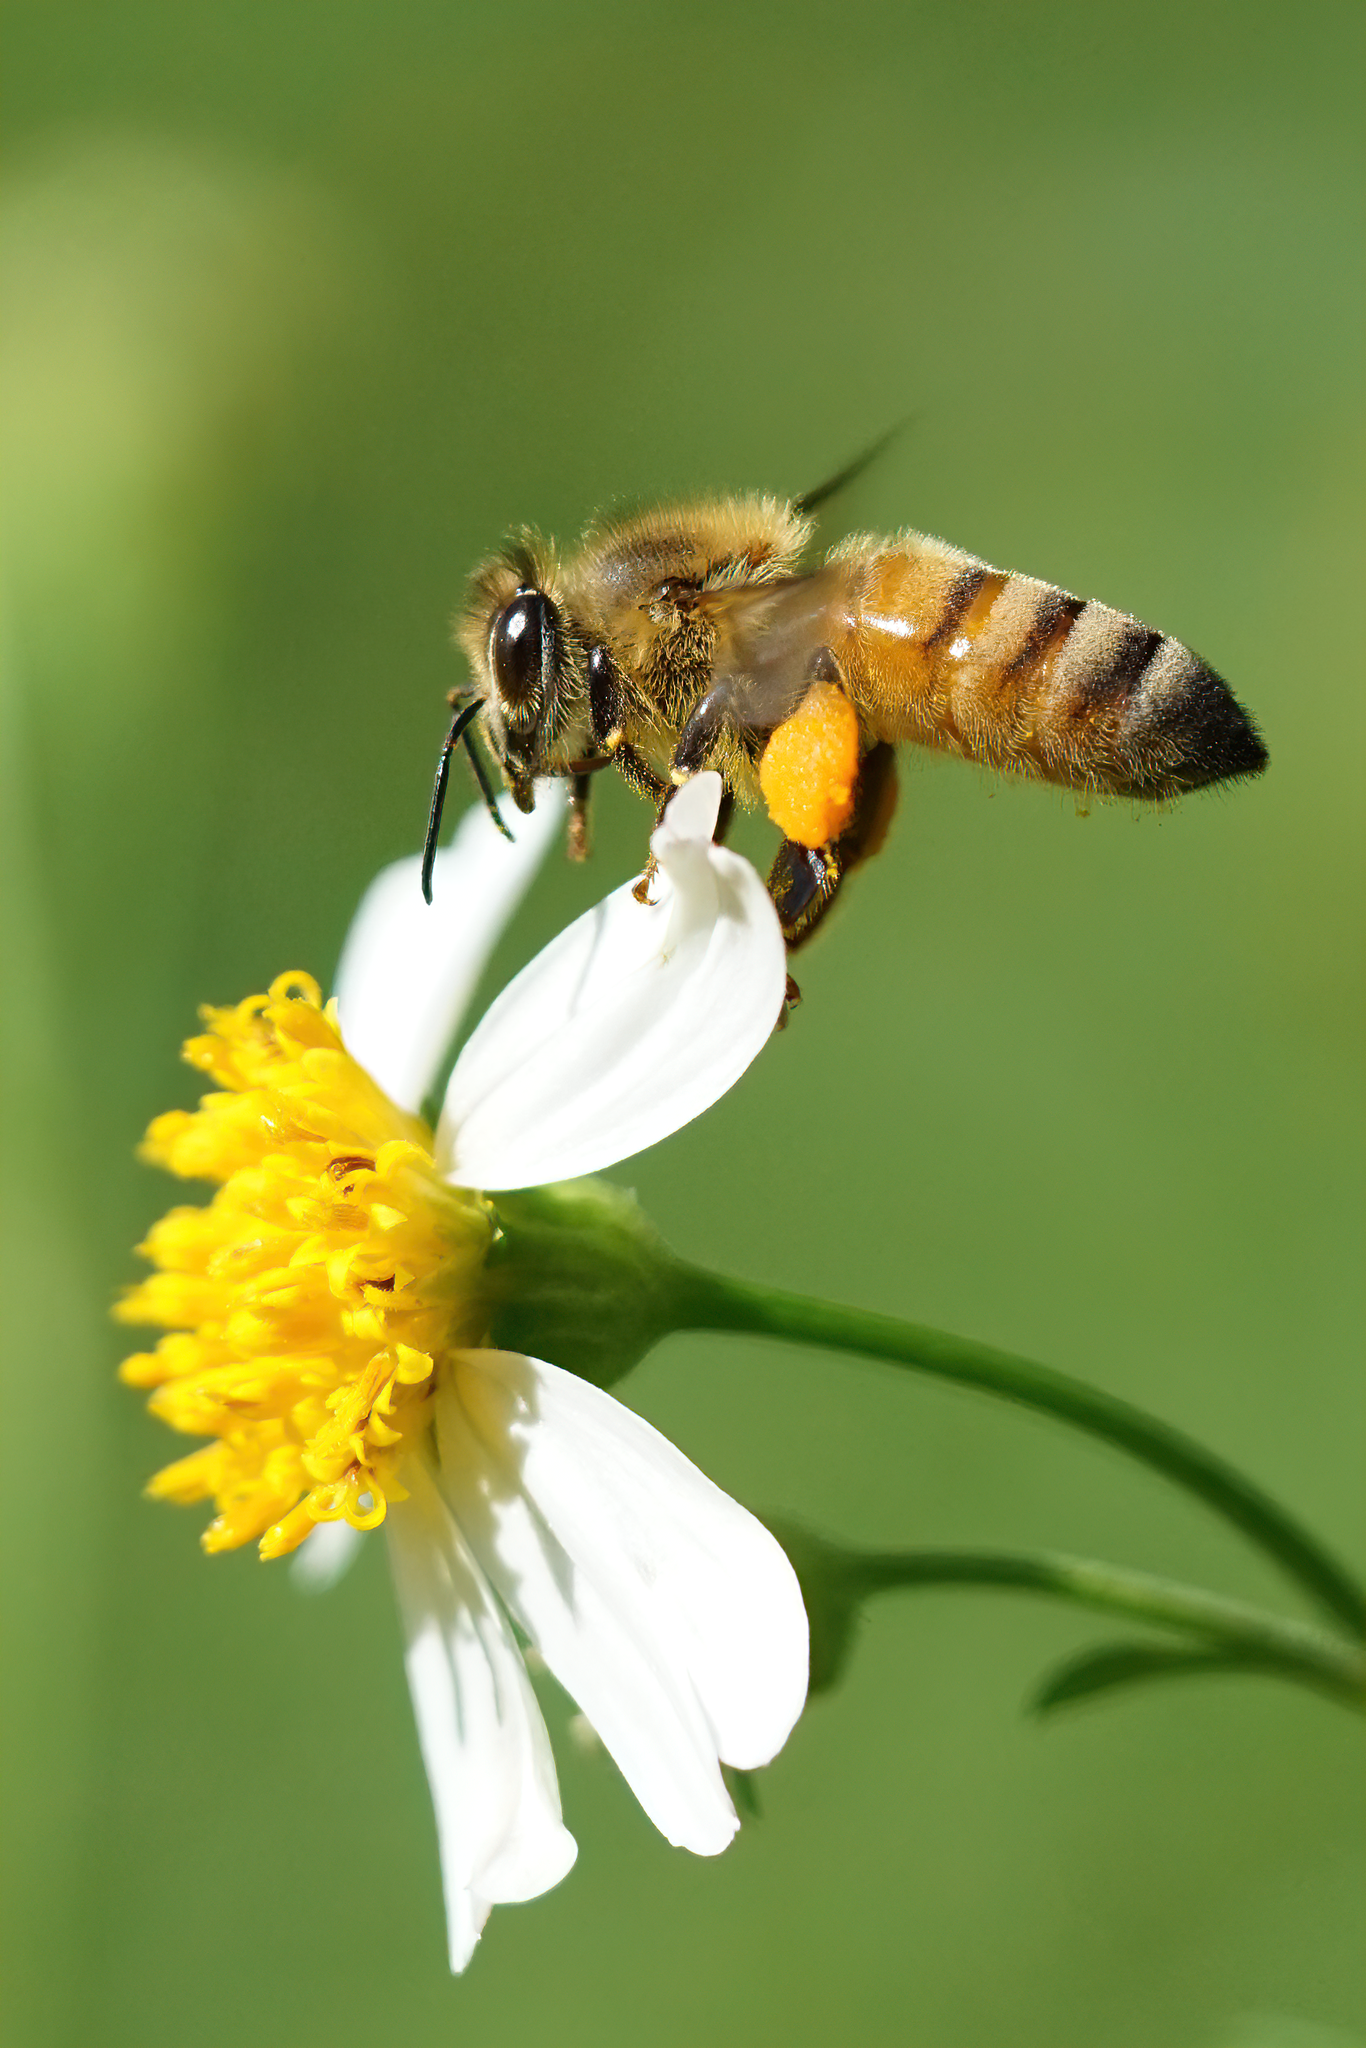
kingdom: Animalia
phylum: Arthropoda
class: Insecta
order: Hymenoptera
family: Apidae
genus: Apis
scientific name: Apis mellifera
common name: Honey bee
